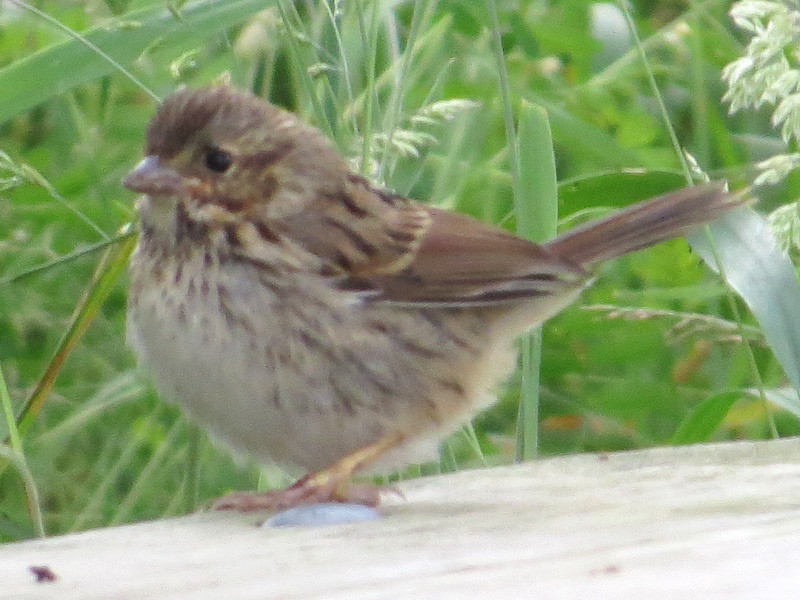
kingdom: Animalia
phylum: Chordata
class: Aves
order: Passeriformes
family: Passerellidae
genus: Melospiza
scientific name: Melospiza melodia
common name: Song sparrow
